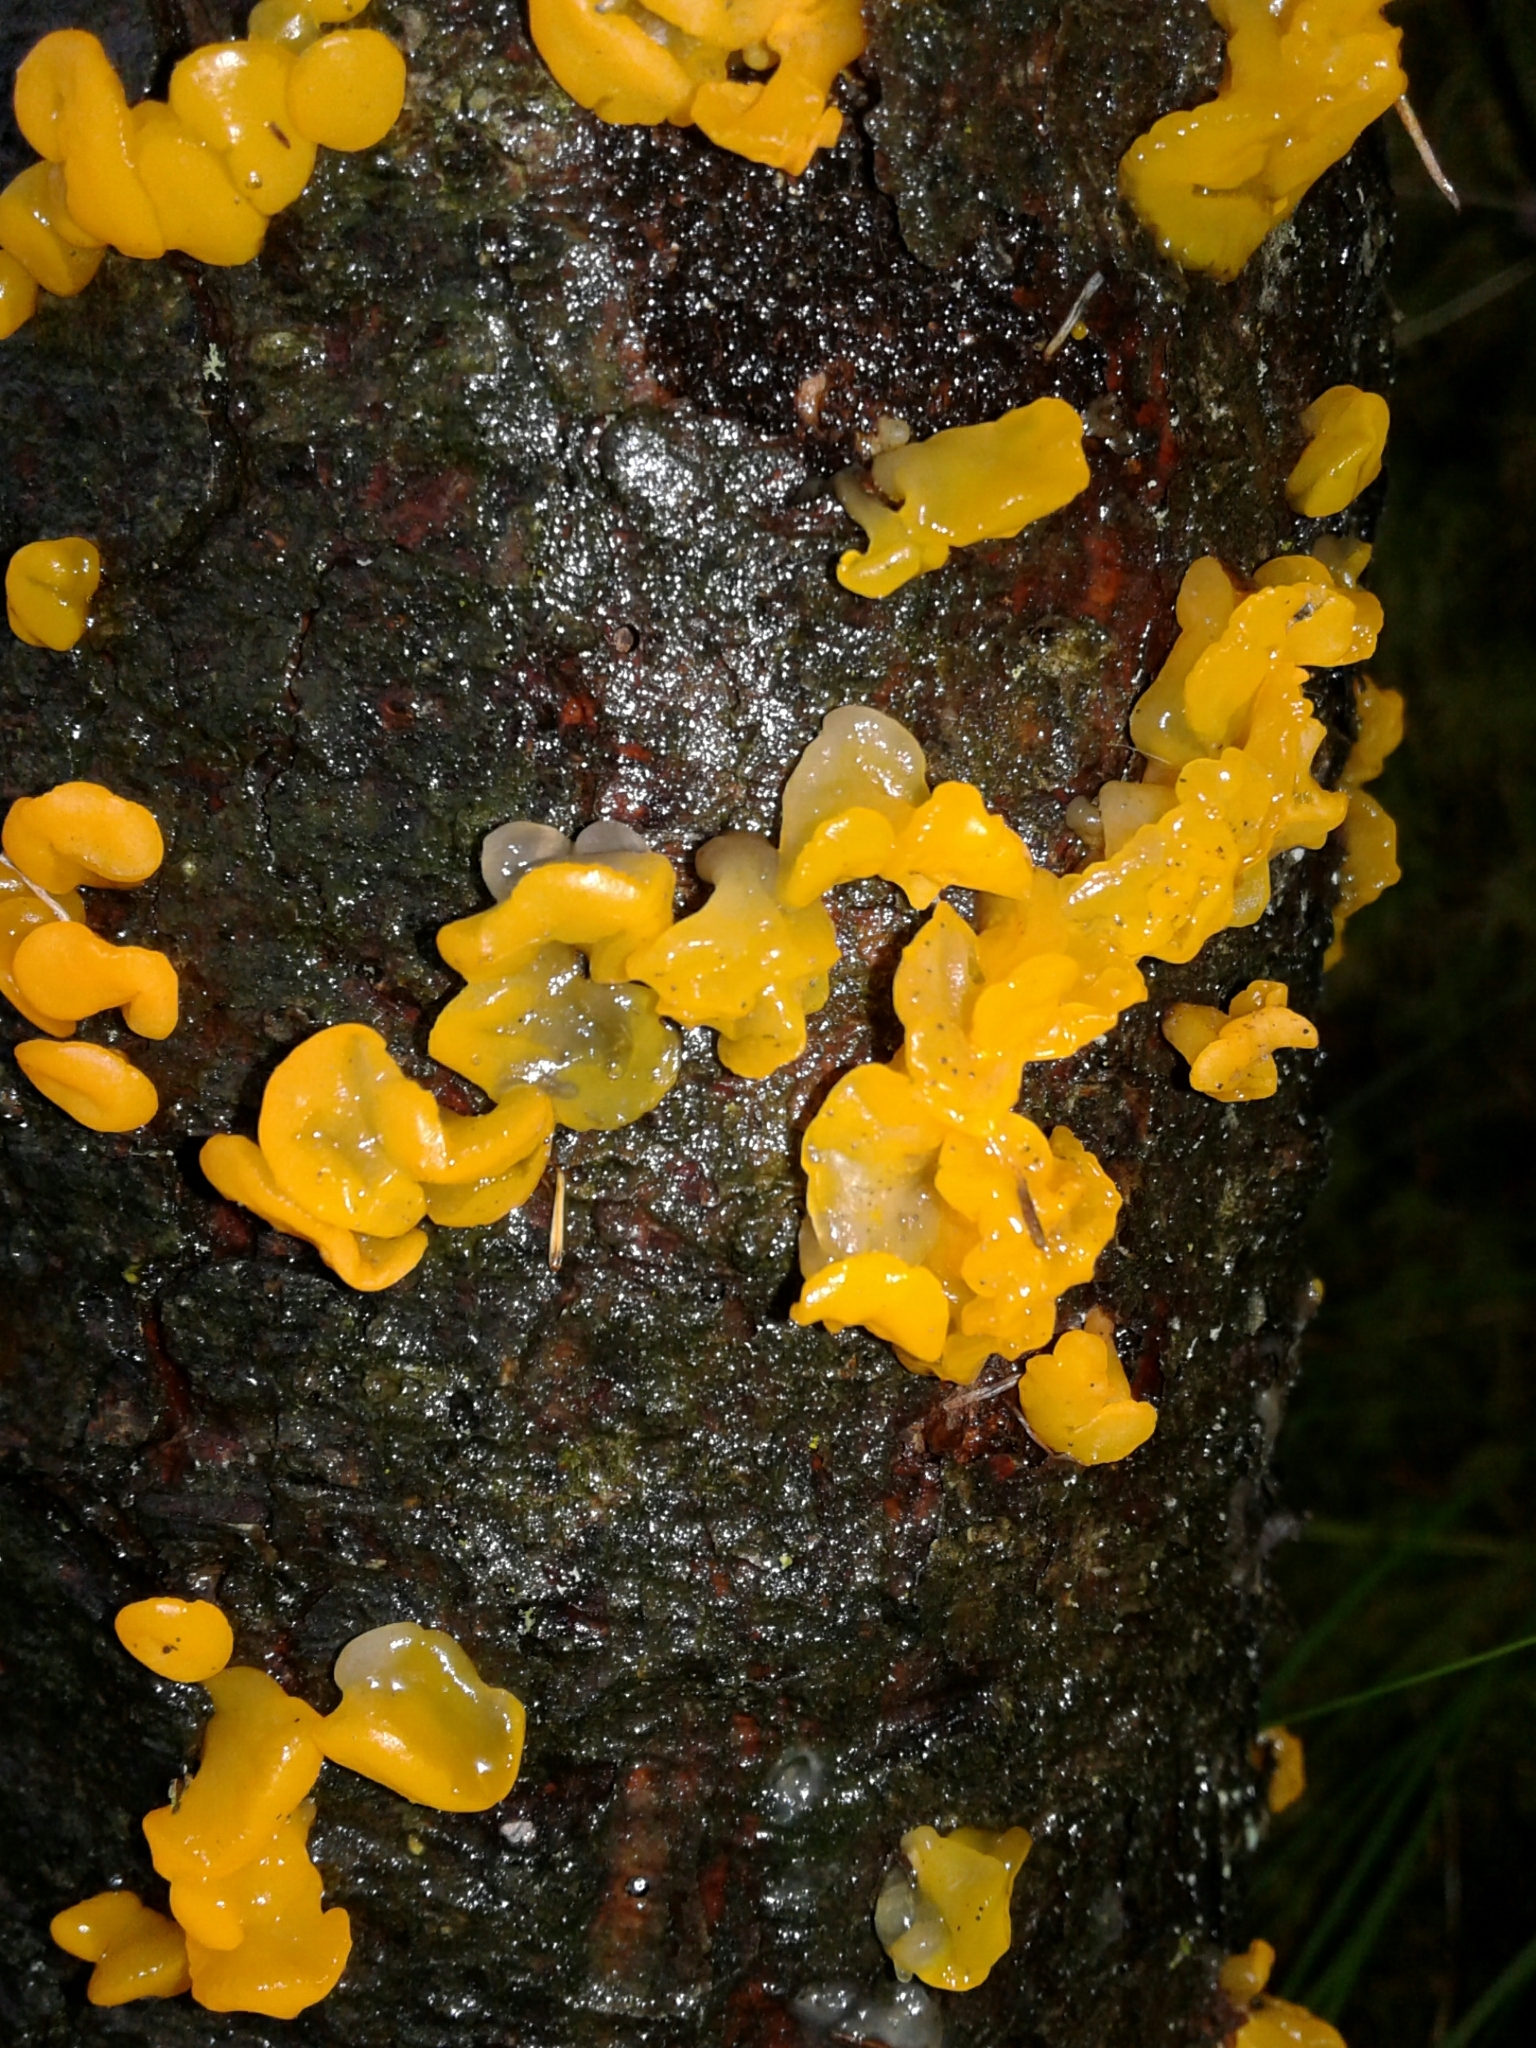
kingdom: Fungi
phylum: Basidiomycota
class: Dacrymycetes
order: Dacrymycetales
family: Dacrymycetaceae
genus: Dacrymyces
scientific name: Dacrymyces chrysospermus
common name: Orange jelly spot
